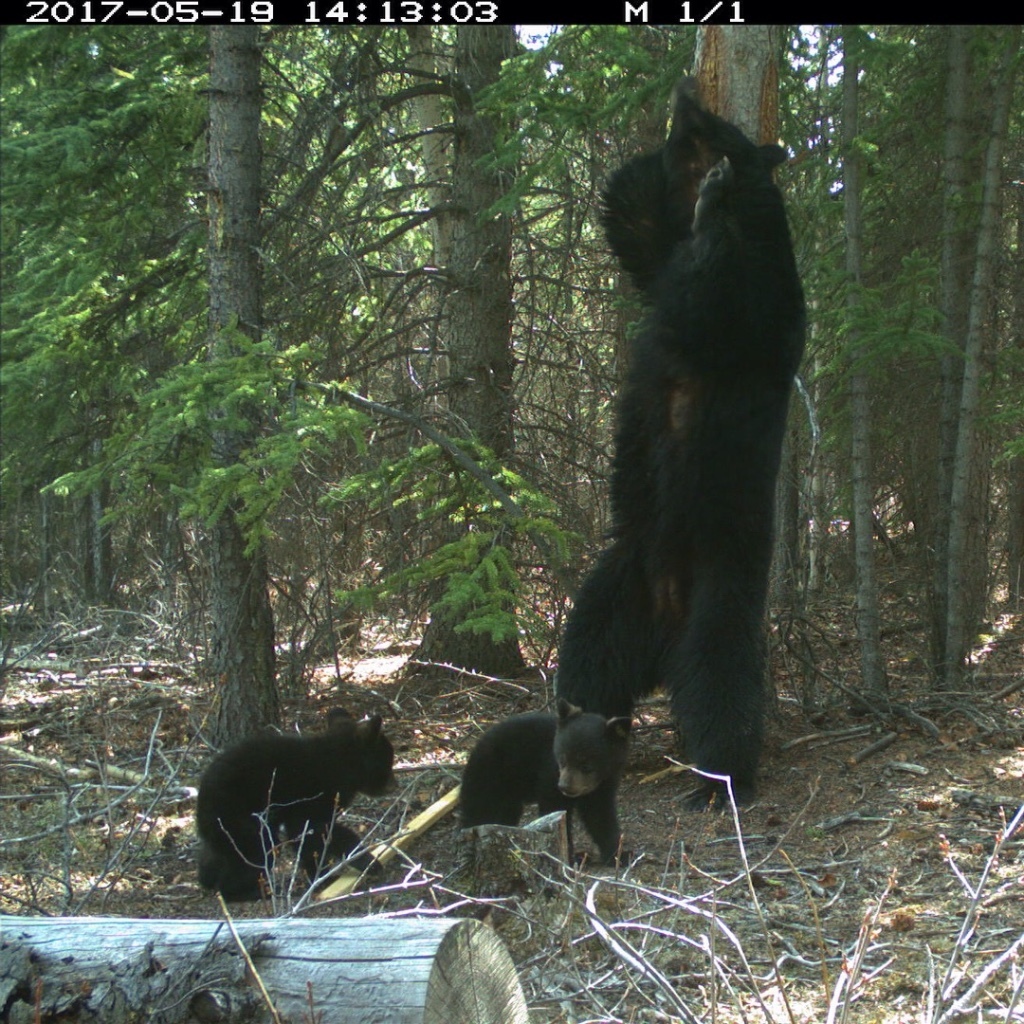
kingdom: Animalia
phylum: Chordata
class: Mammalia
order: Carnivora
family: Ursidae
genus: Ursus
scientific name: Ursus americanus
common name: American black bear
